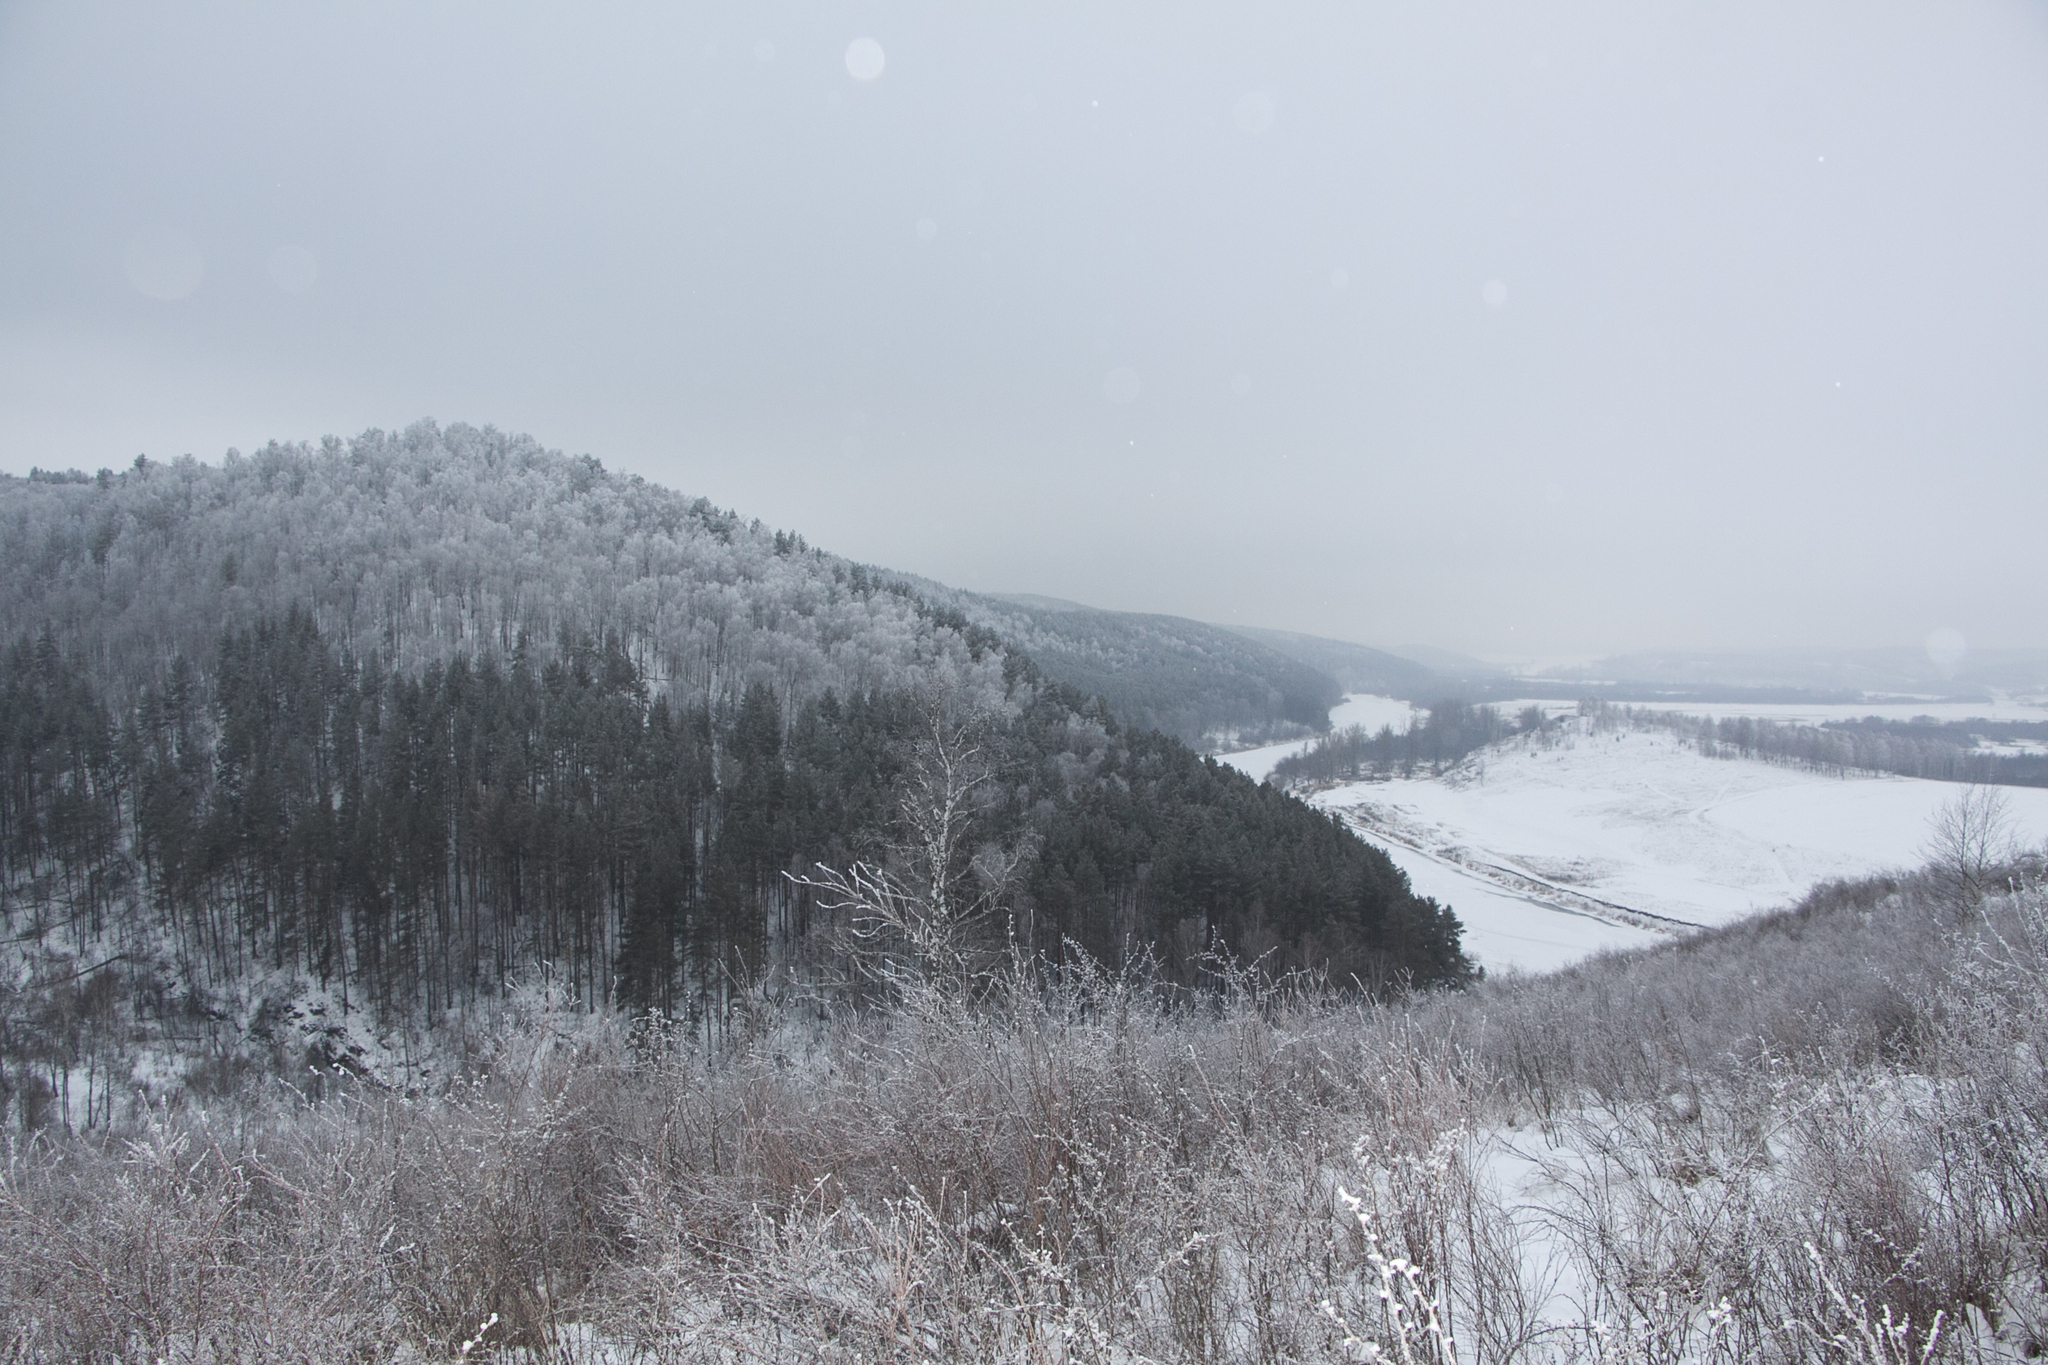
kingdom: Plantae
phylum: Tracheophyta
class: Pinopsida
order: Pinales
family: Pinaceae
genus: Pinus
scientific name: Pinus sylvestris
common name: Scots pine
